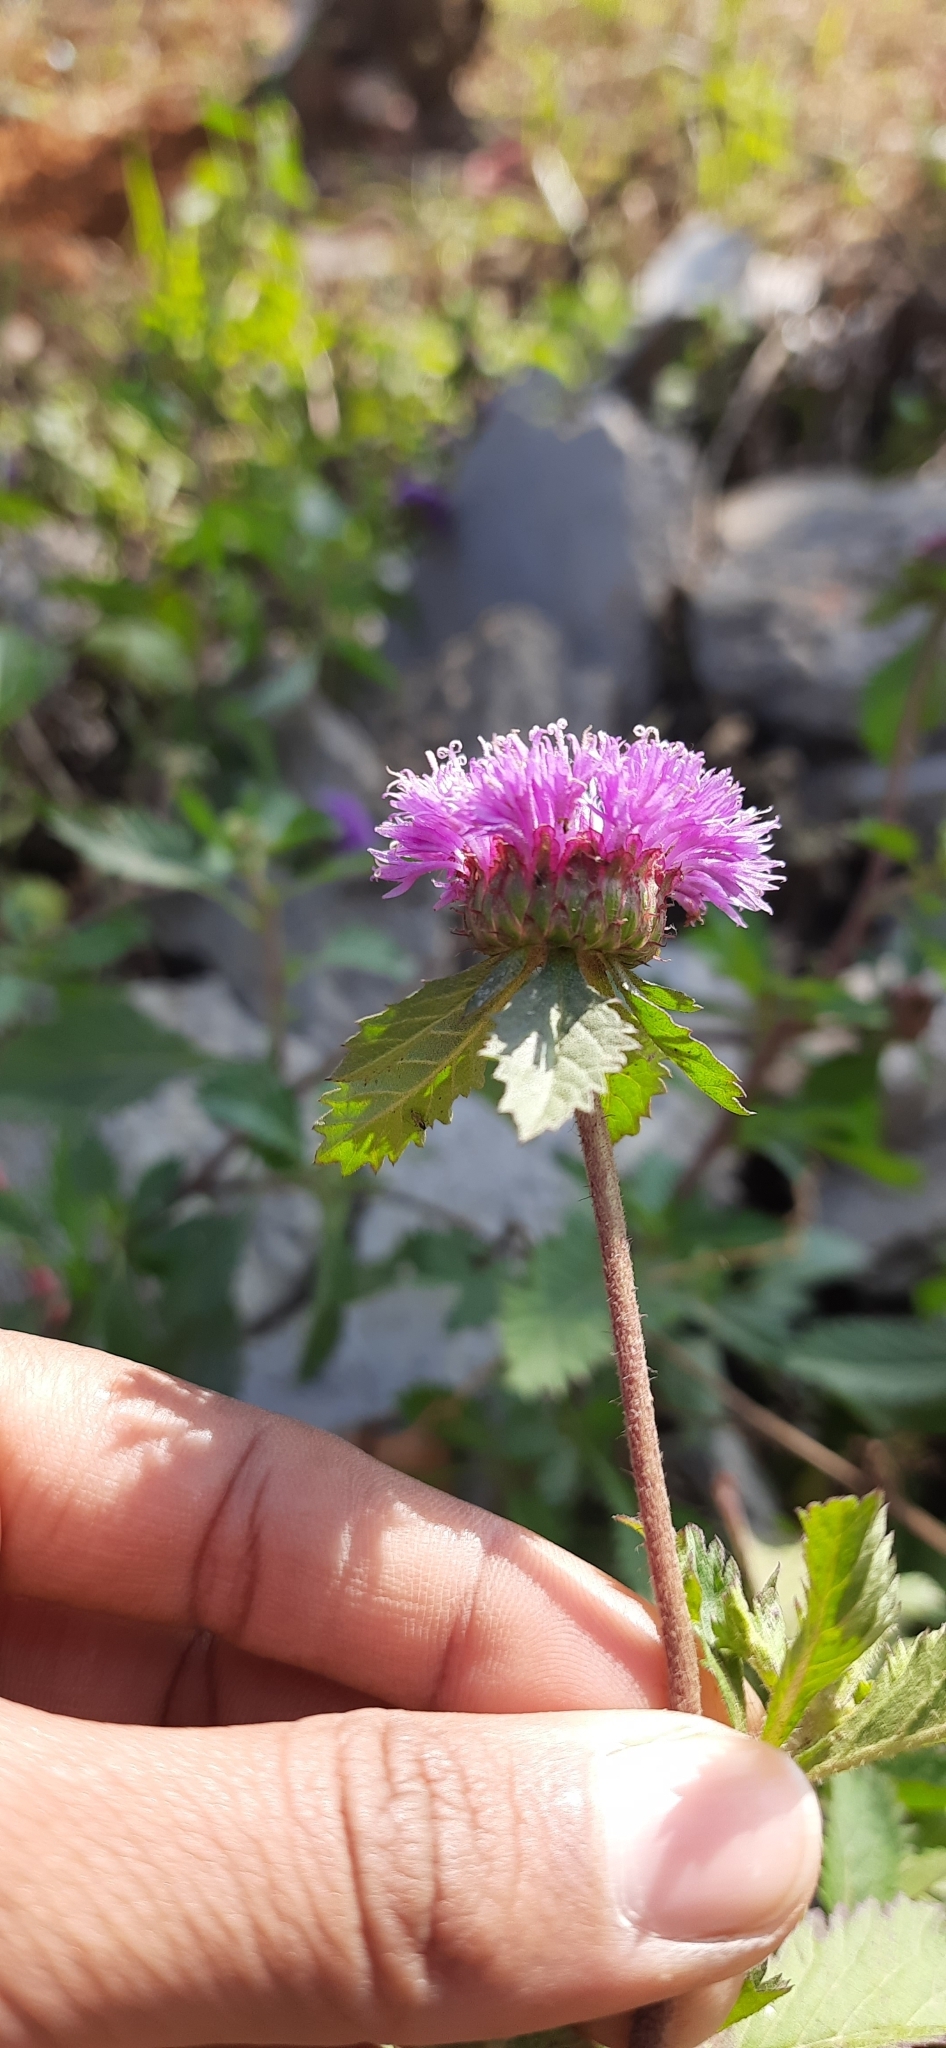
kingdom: Plantae
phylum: Tracheophyta
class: Magnoliopsida
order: Asterales
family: Asteraceae
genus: Centratherum
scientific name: Centratherum punctatum
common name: Larkdaisy
